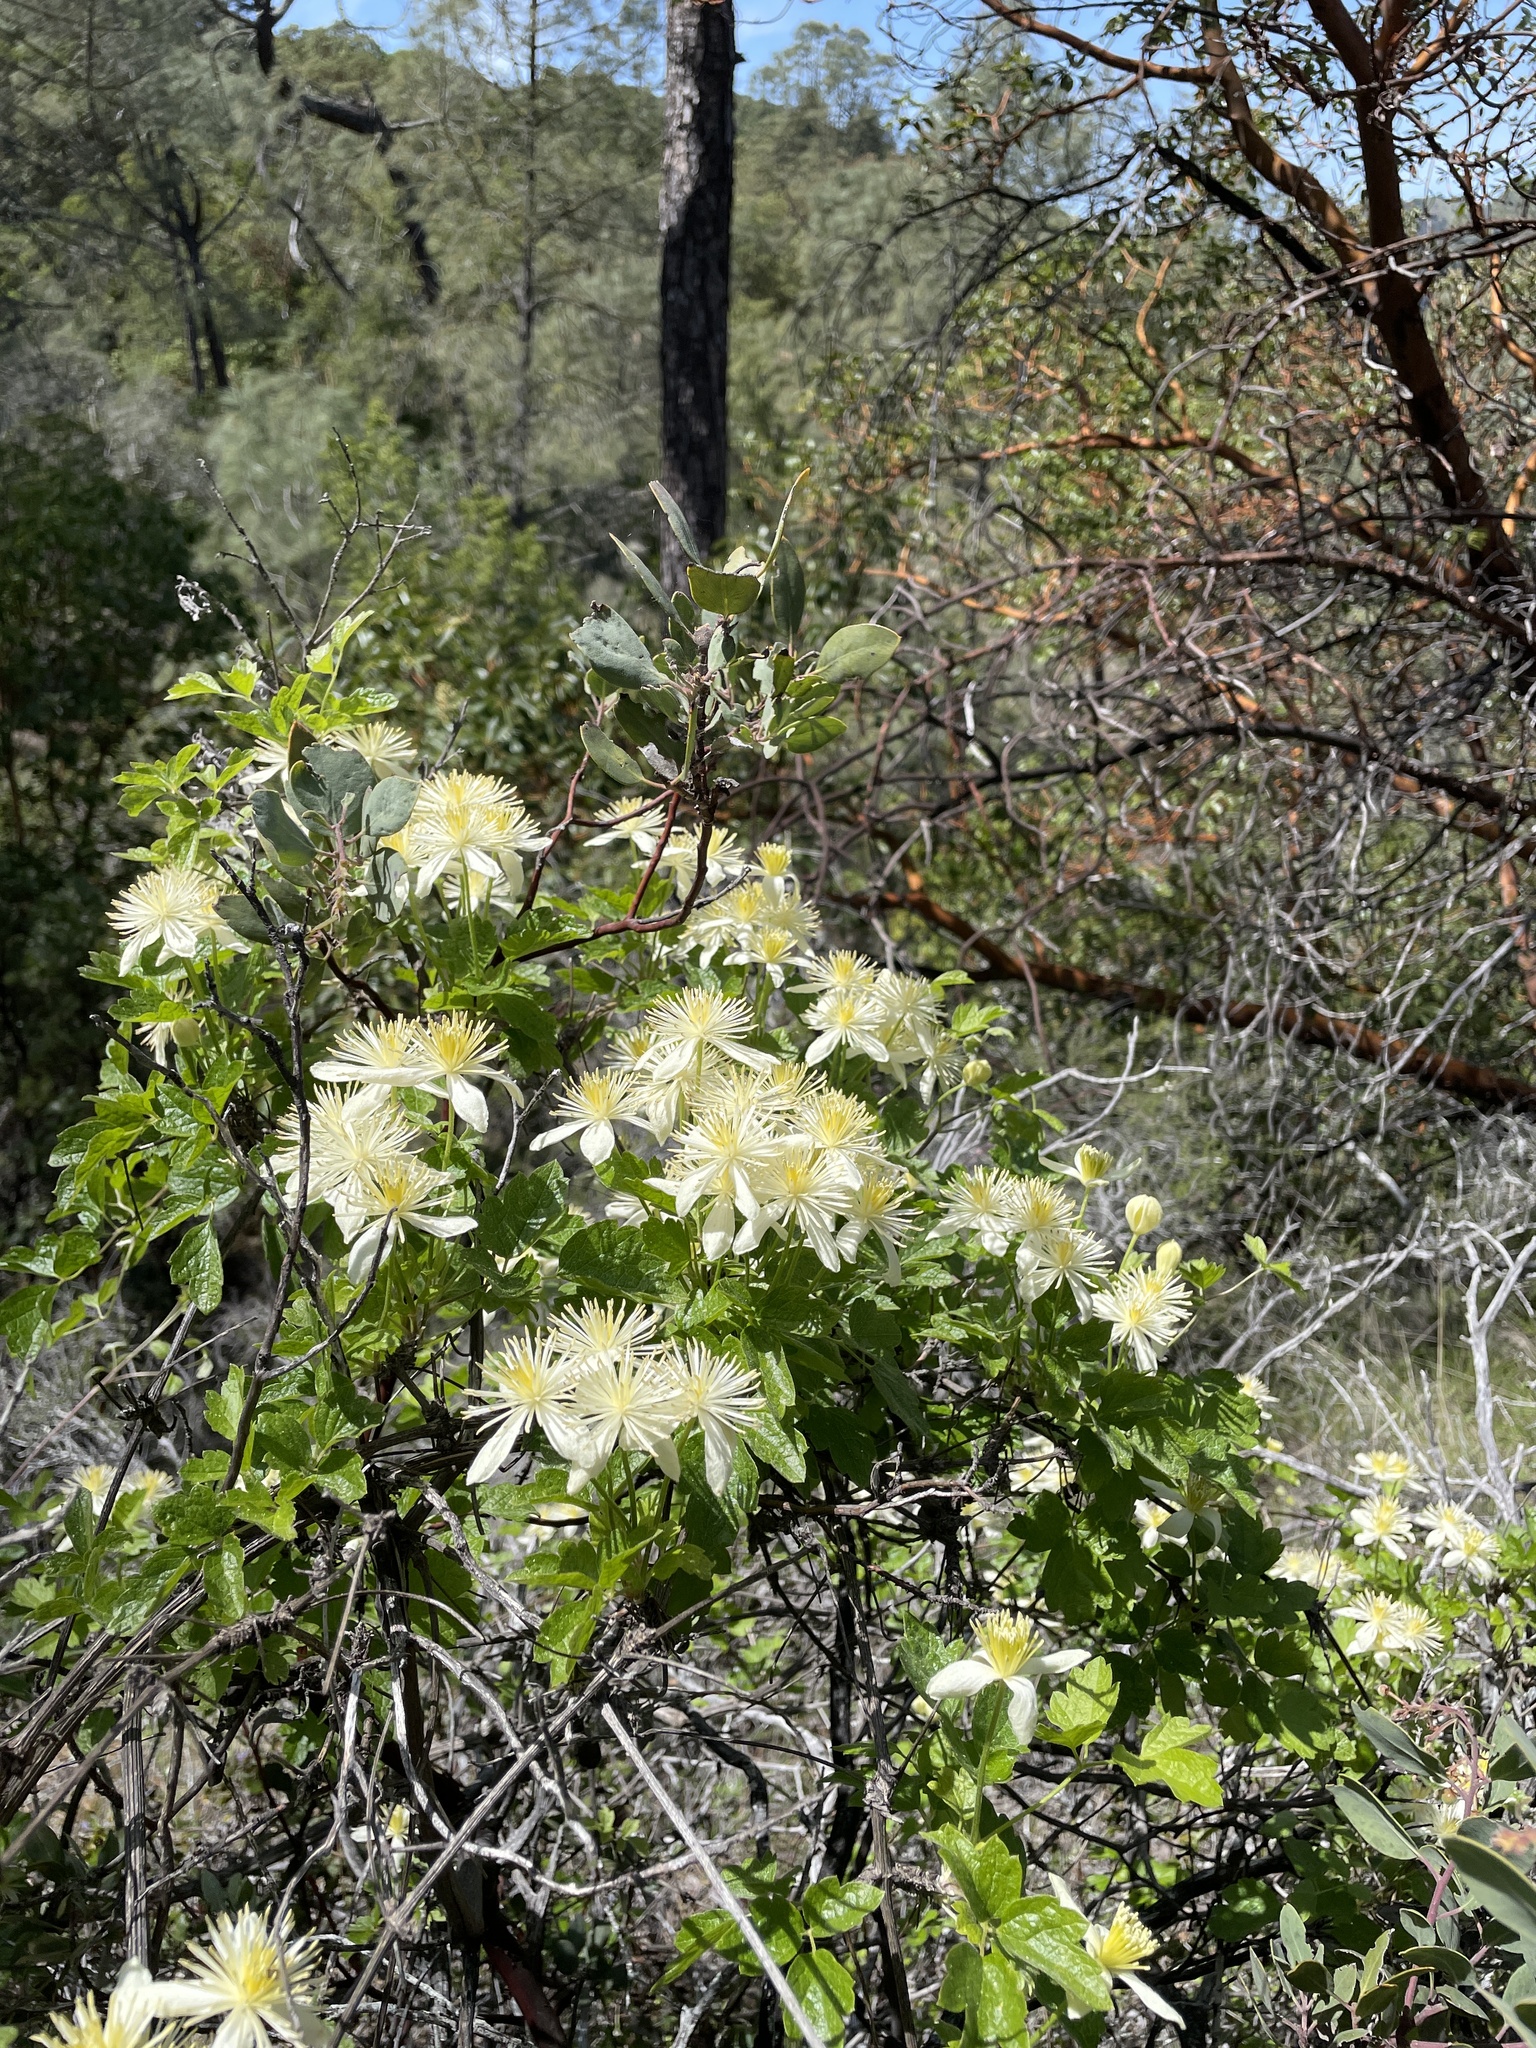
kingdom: Plantae
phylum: Tracheophyta
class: Magnoliopsida
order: Ranunculales
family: Ranunculaceae
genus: Clematis
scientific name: Clematis lasiantha
